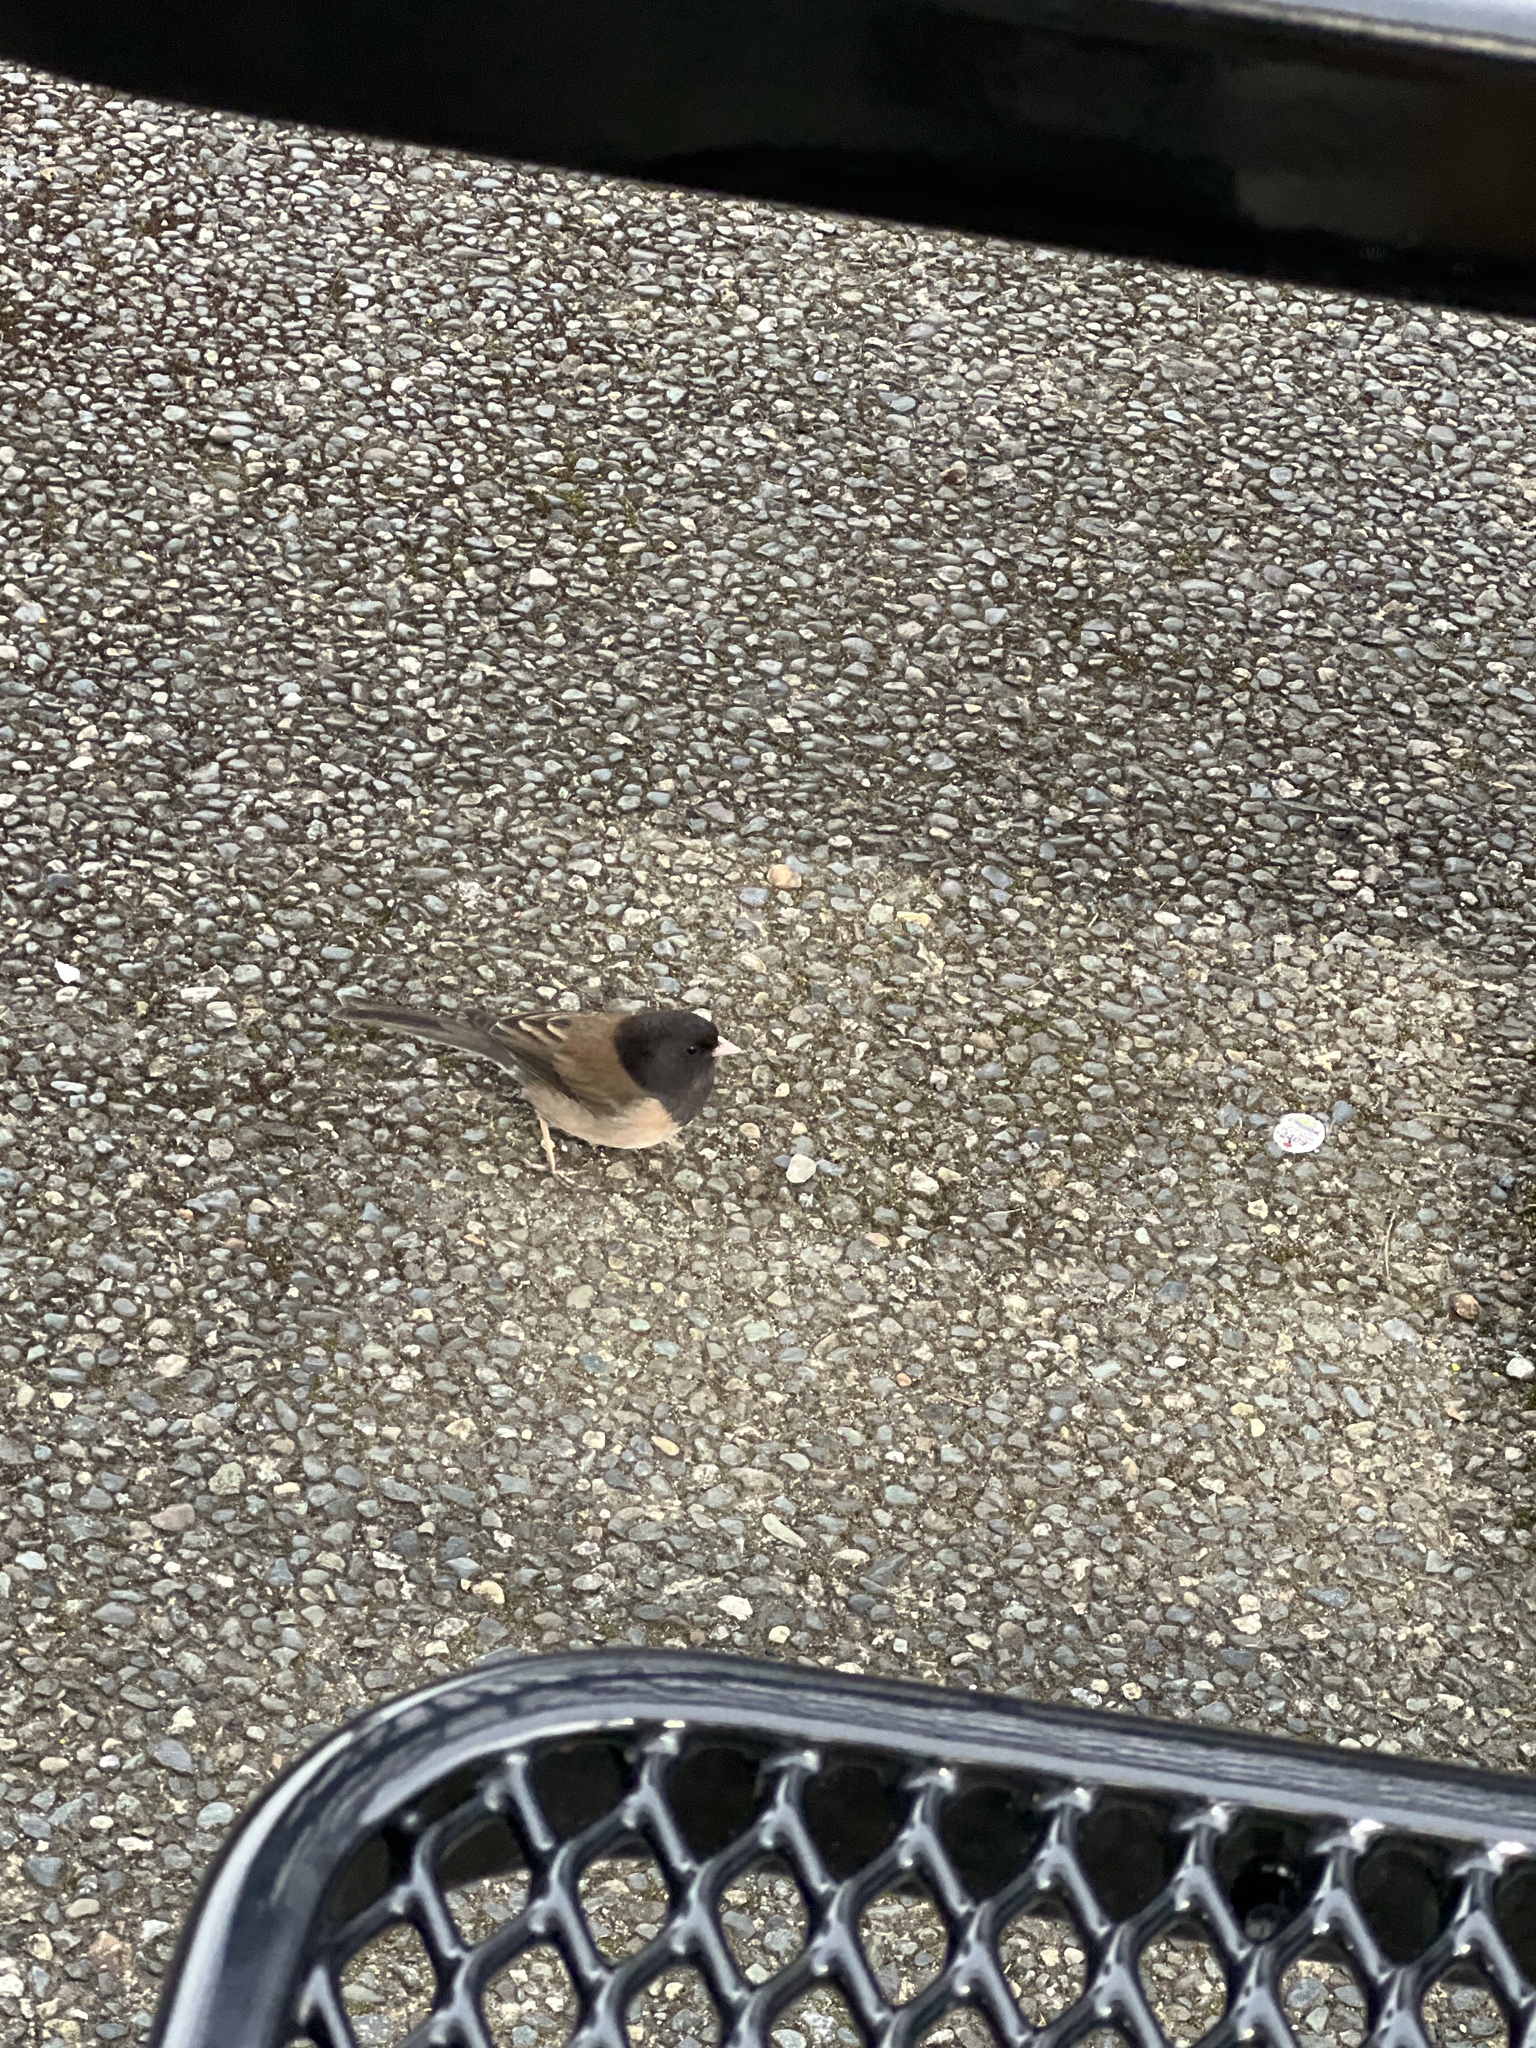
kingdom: Animalia
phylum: Chordata
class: Aves
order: Passeriformes
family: Passerellidae
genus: Junco
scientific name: Junco hyemalis
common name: Dark-eyed junco
